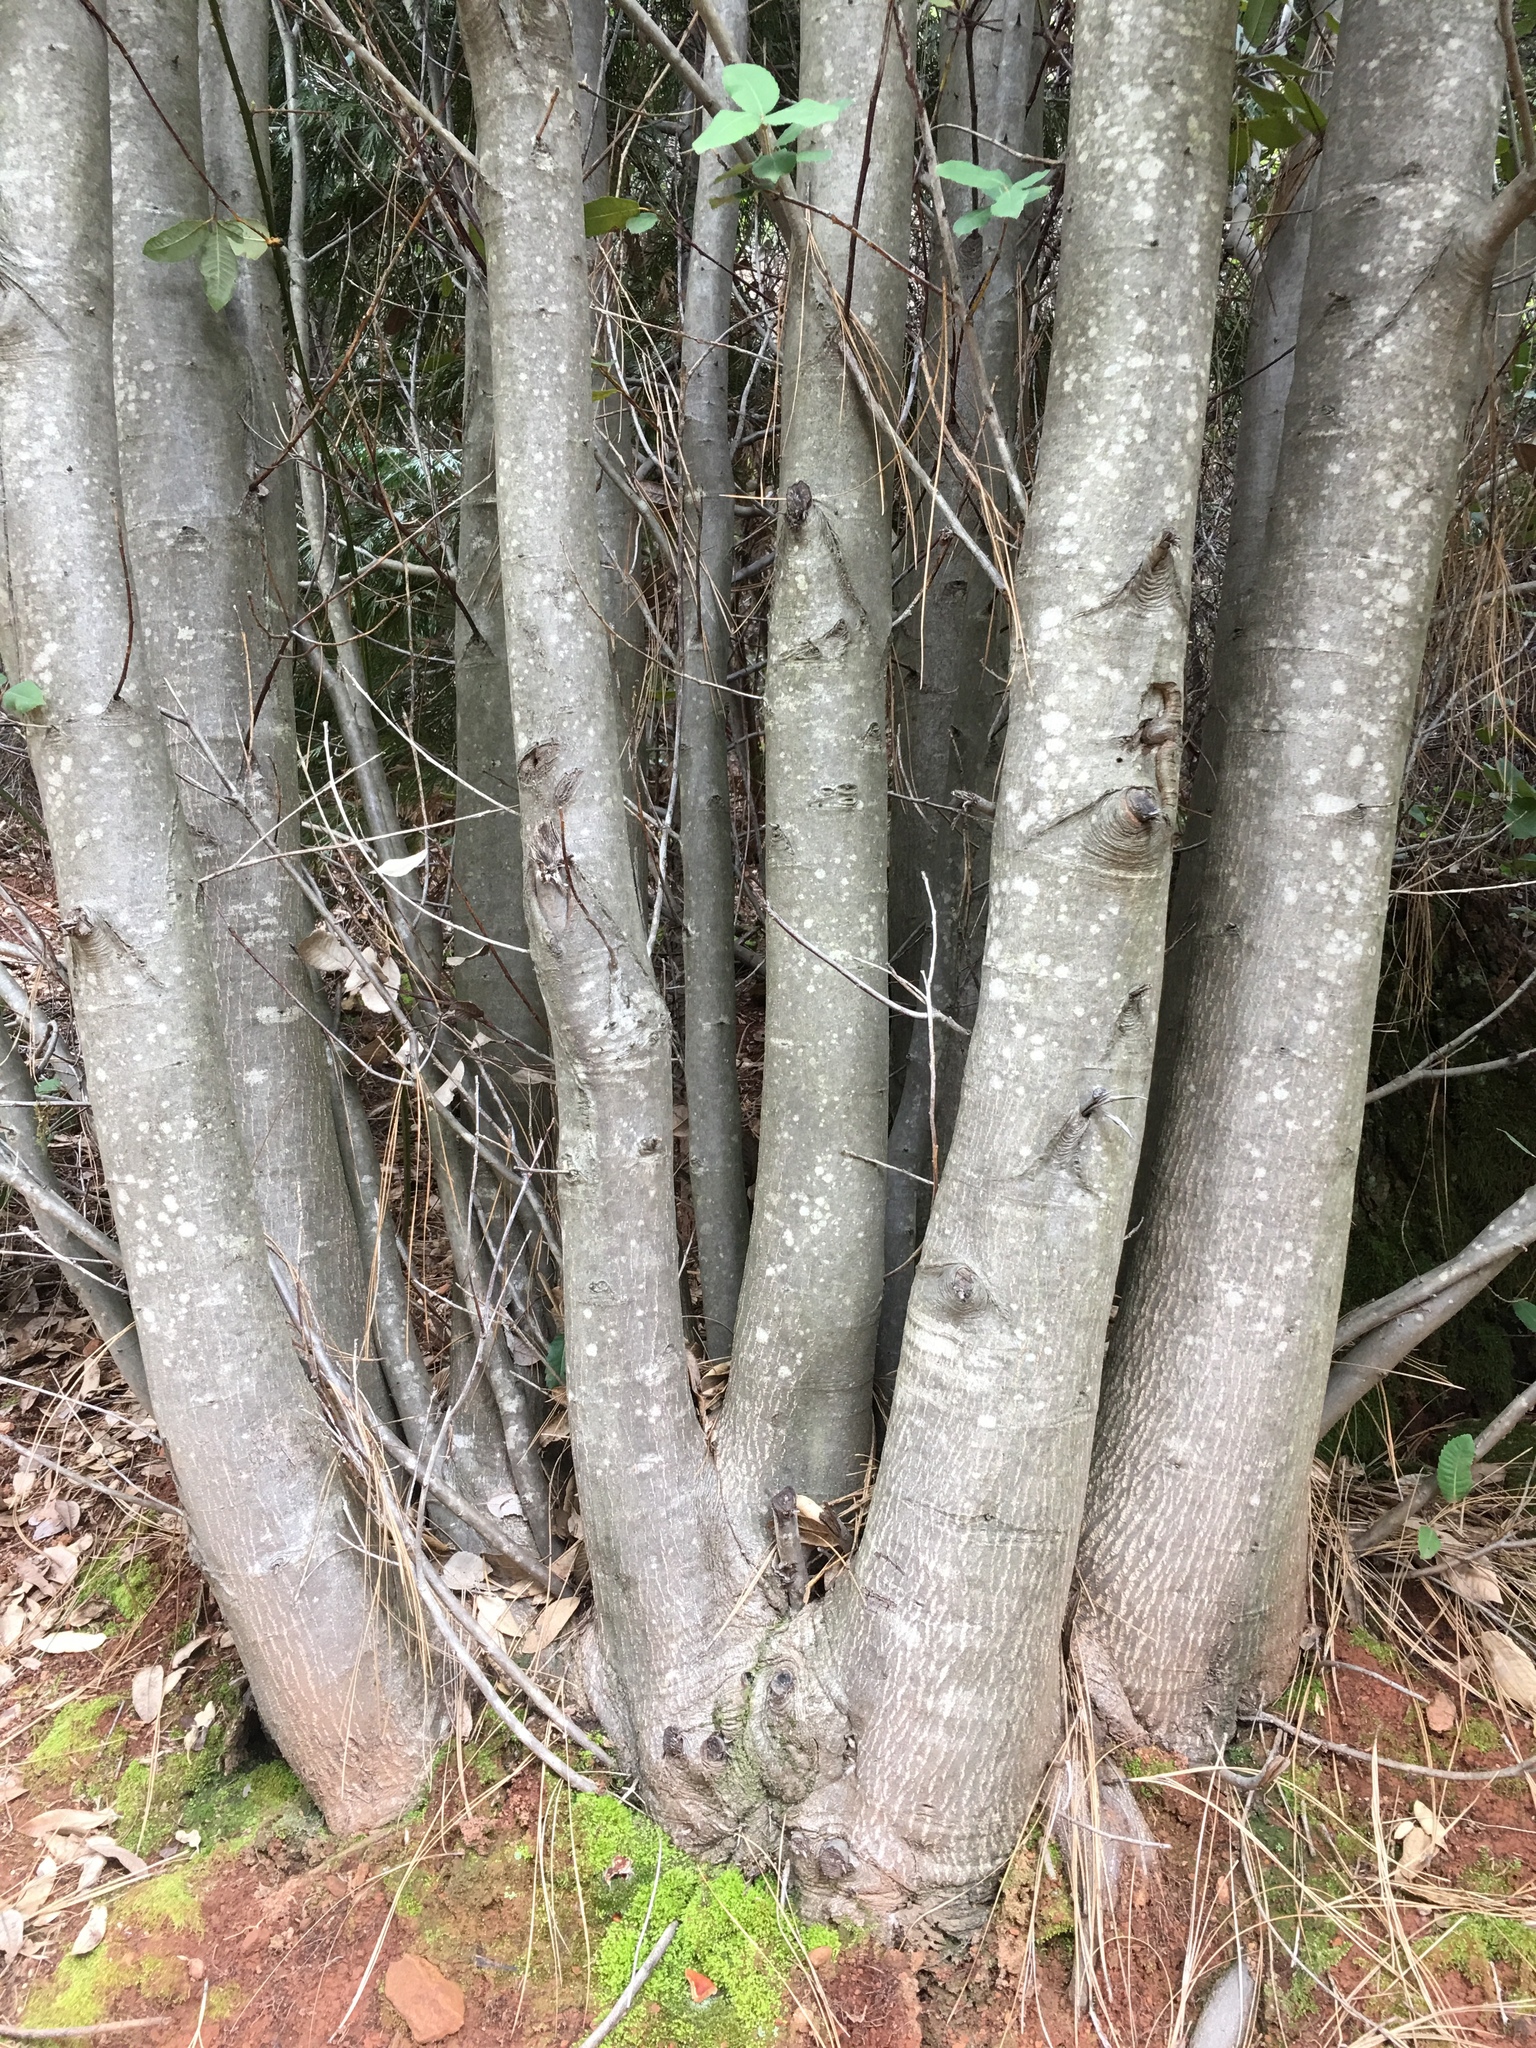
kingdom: Plantae
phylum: Tracheophyta
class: Magnoliopsida
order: Fagales
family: Fagaceae
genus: Notholithocarpus
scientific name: Notholithocarpus densiflorus
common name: Tan bark oak
